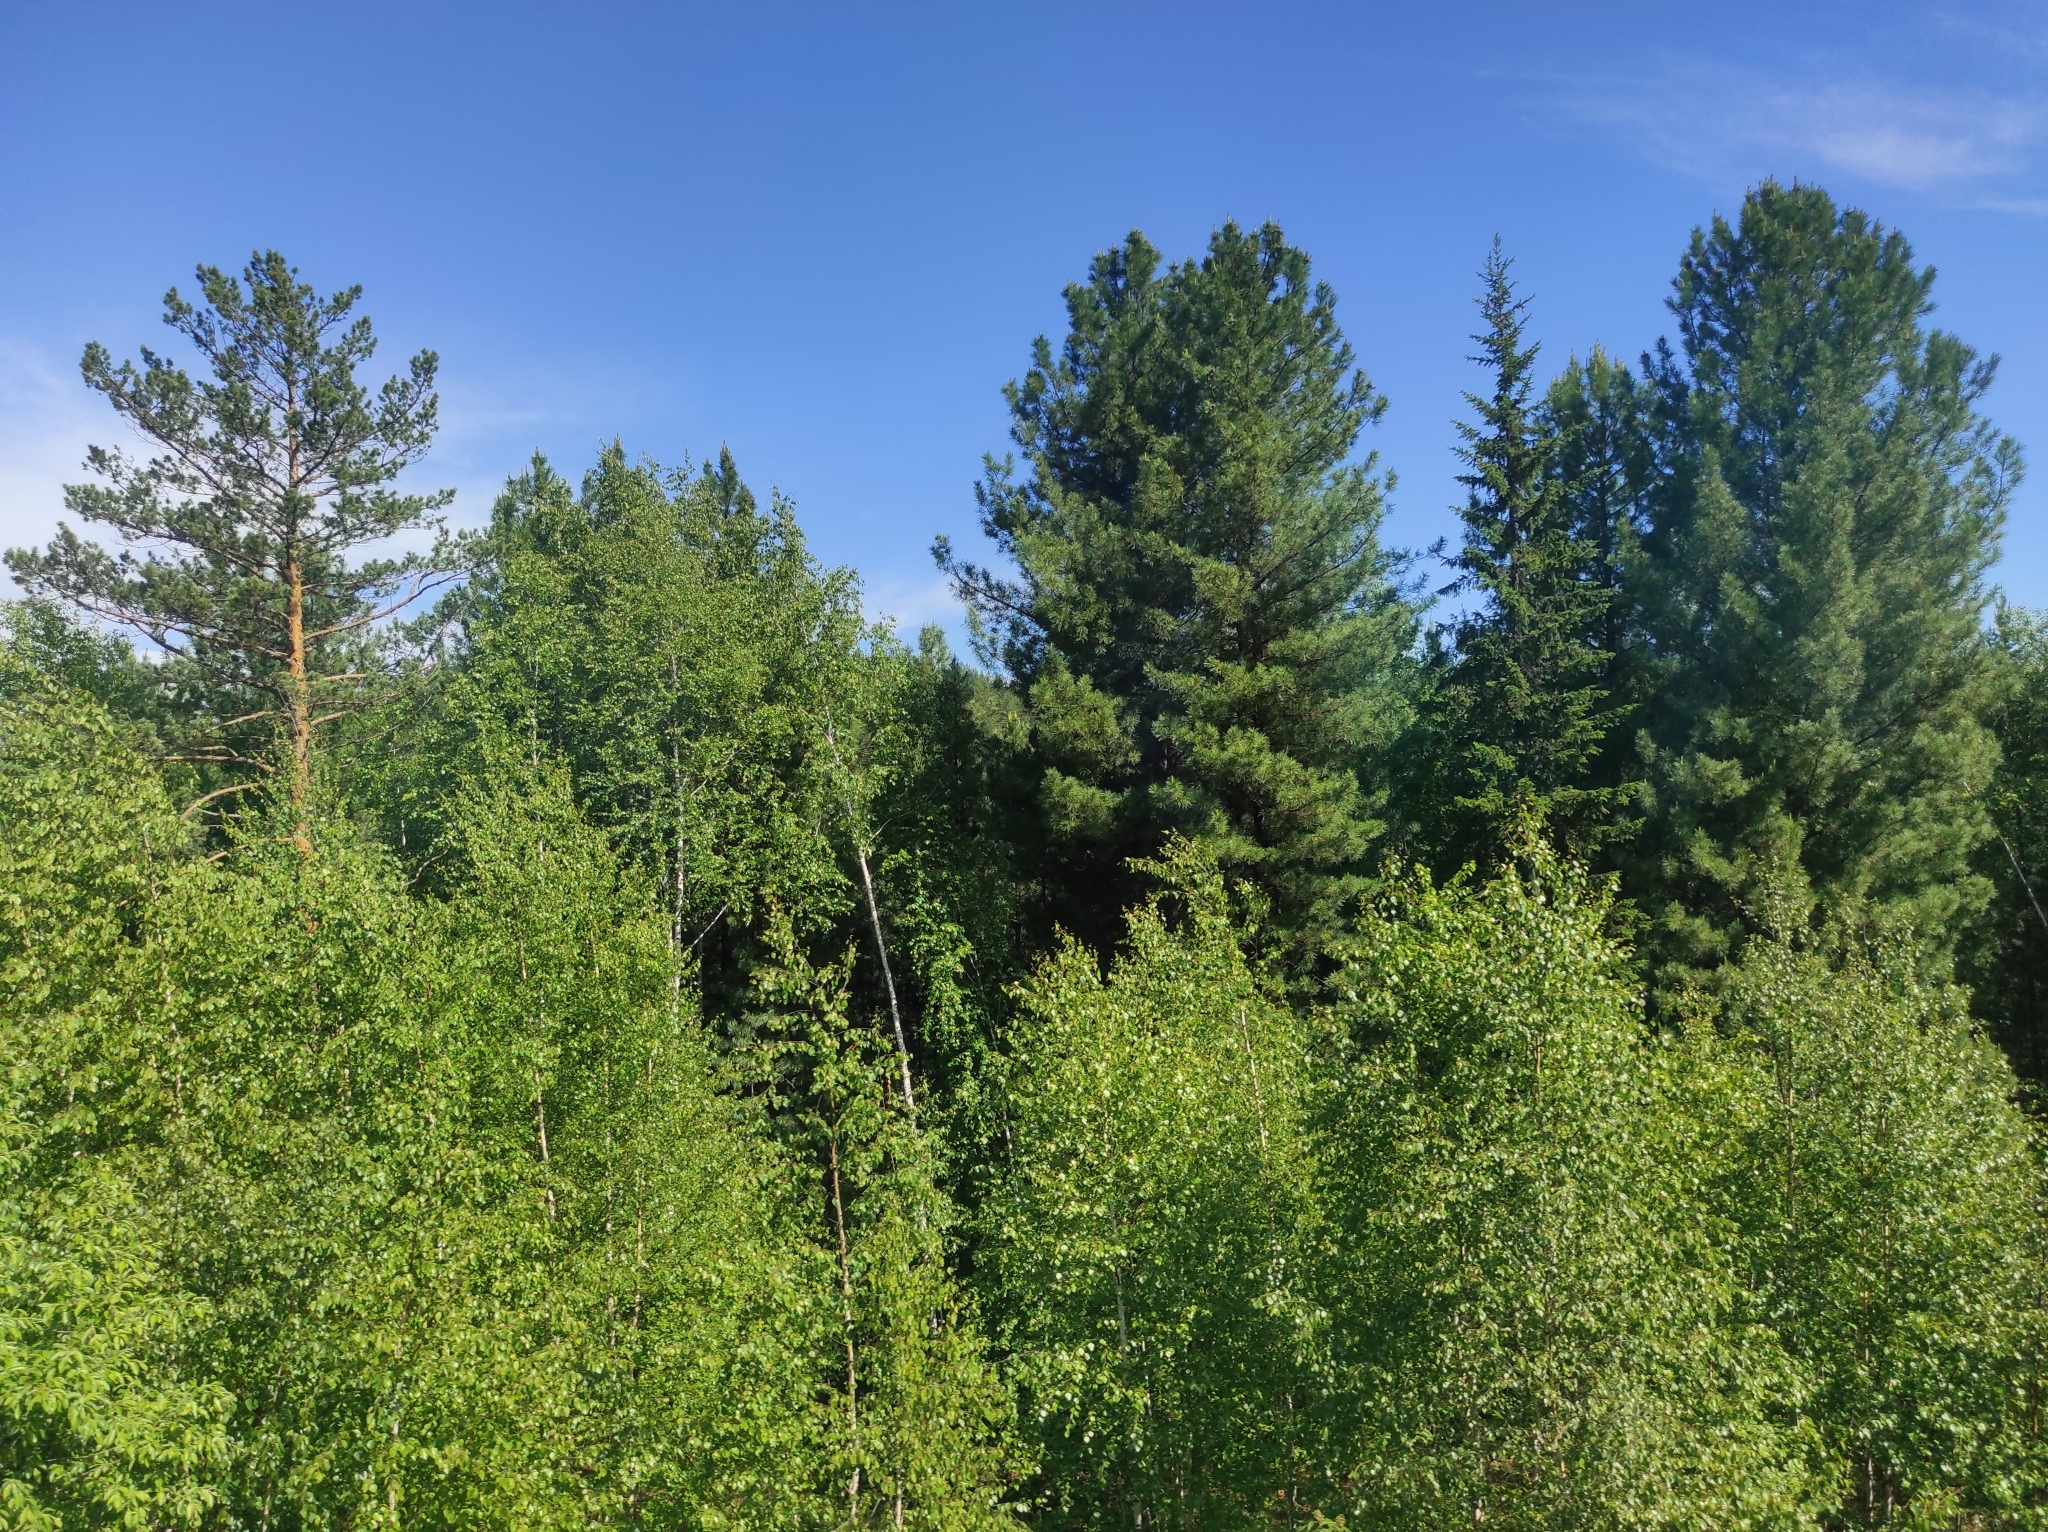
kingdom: Plantae
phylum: Tracheophyta
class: Pinopsida
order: Pinales
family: Pinaceae
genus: Pinus
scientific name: Pinus sylvestris
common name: Scots pine
